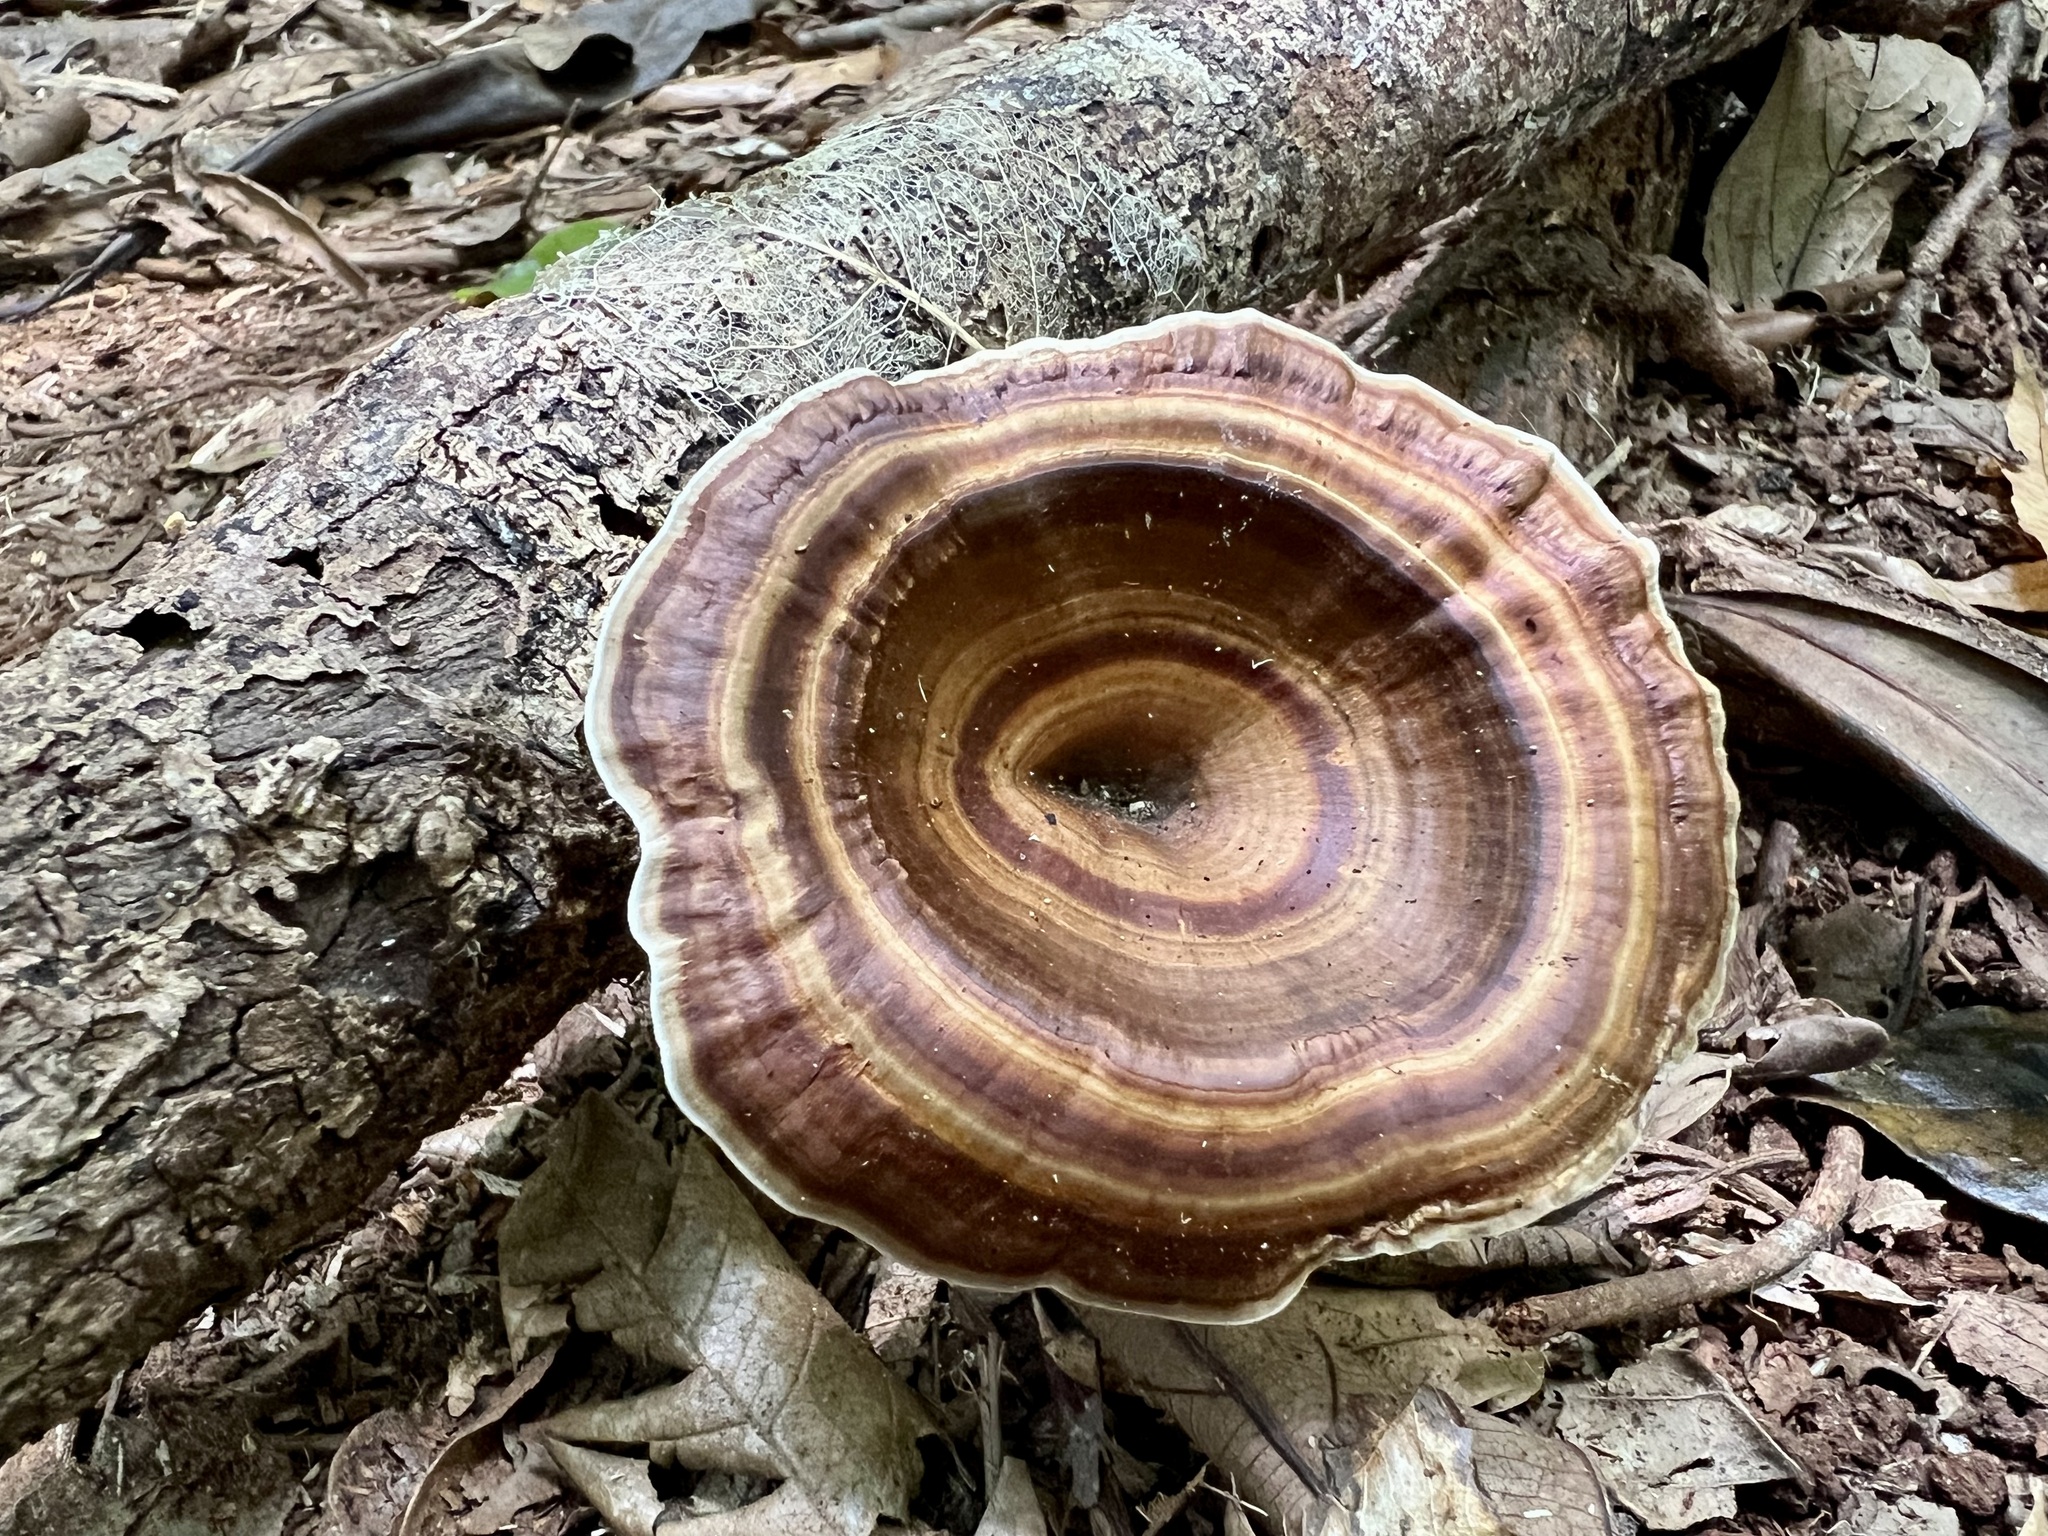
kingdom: Fungi
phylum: Basidiomycota
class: Agaricomycetes
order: Polyporales
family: Polyporaceae
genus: Microporus
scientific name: Microporus xanthopus
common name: Yellow-stemmed micropore
